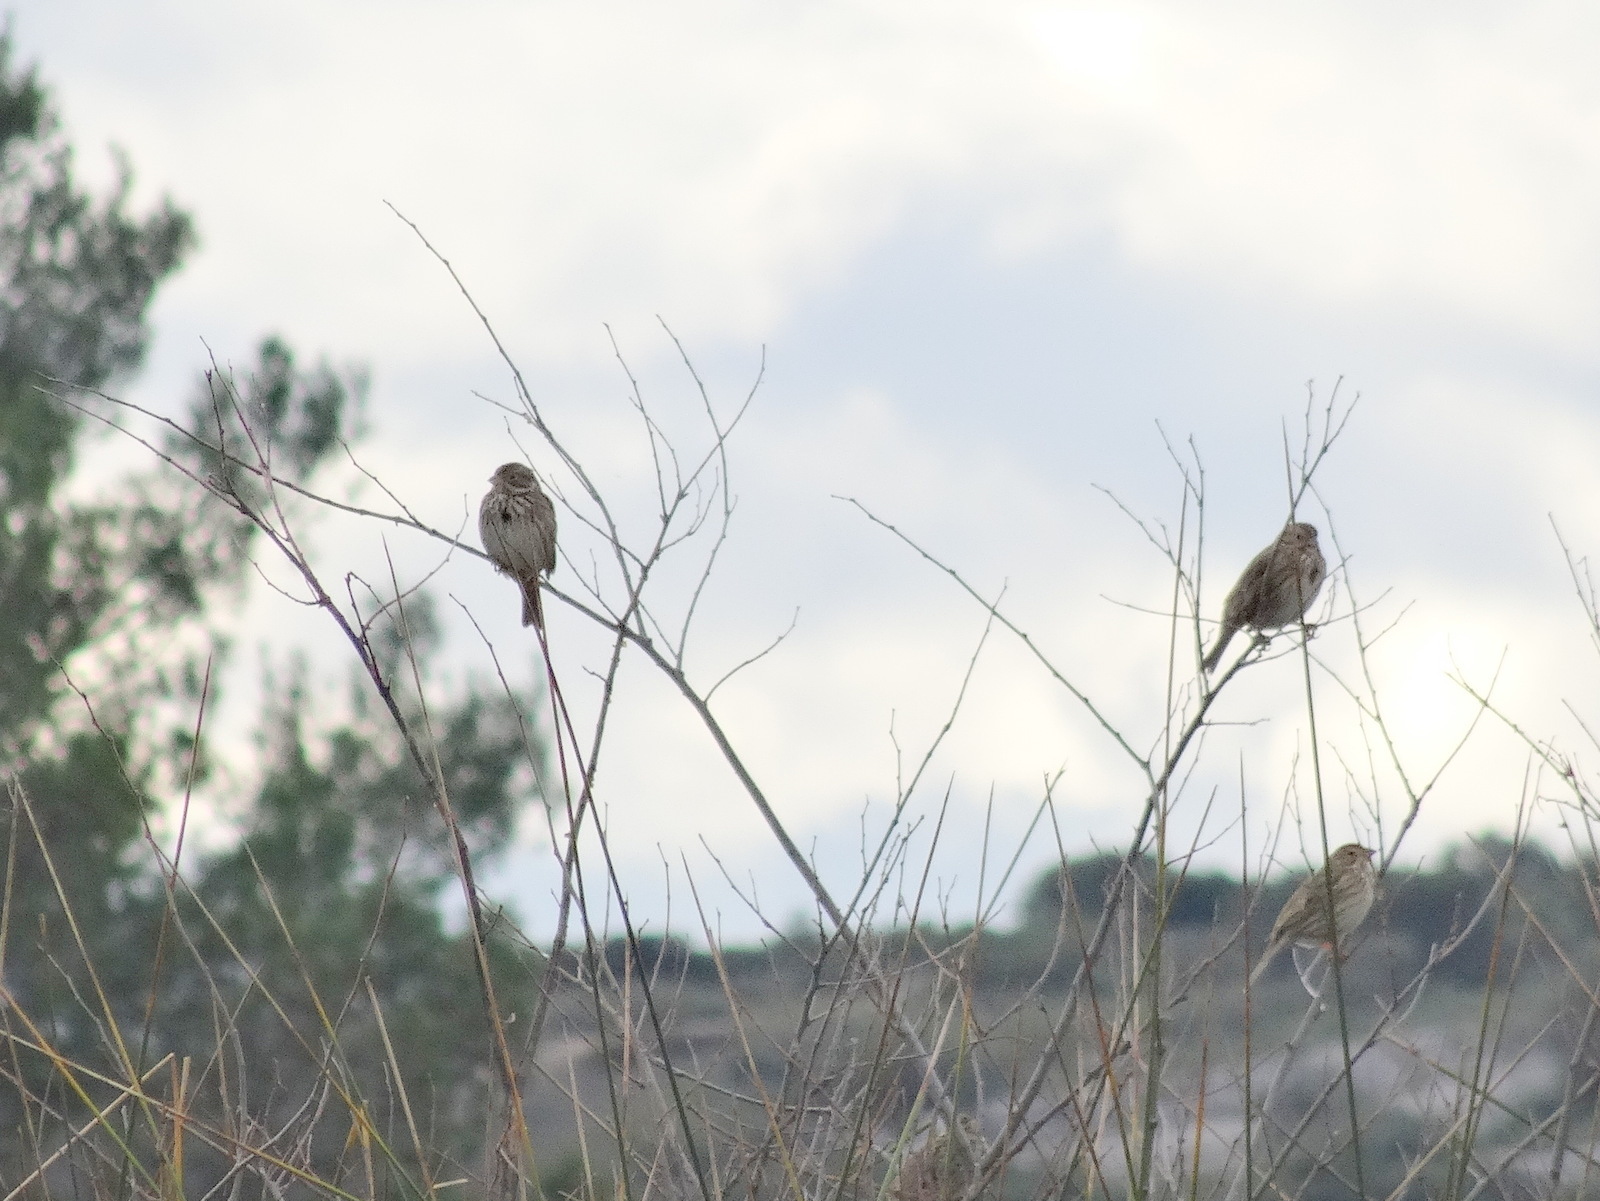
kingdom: Animalia
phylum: Chordata
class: Aves
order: Passeriformes
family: Emberizidae
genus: Emberiza
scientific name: Emberiza calandra
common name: Corn bunting
